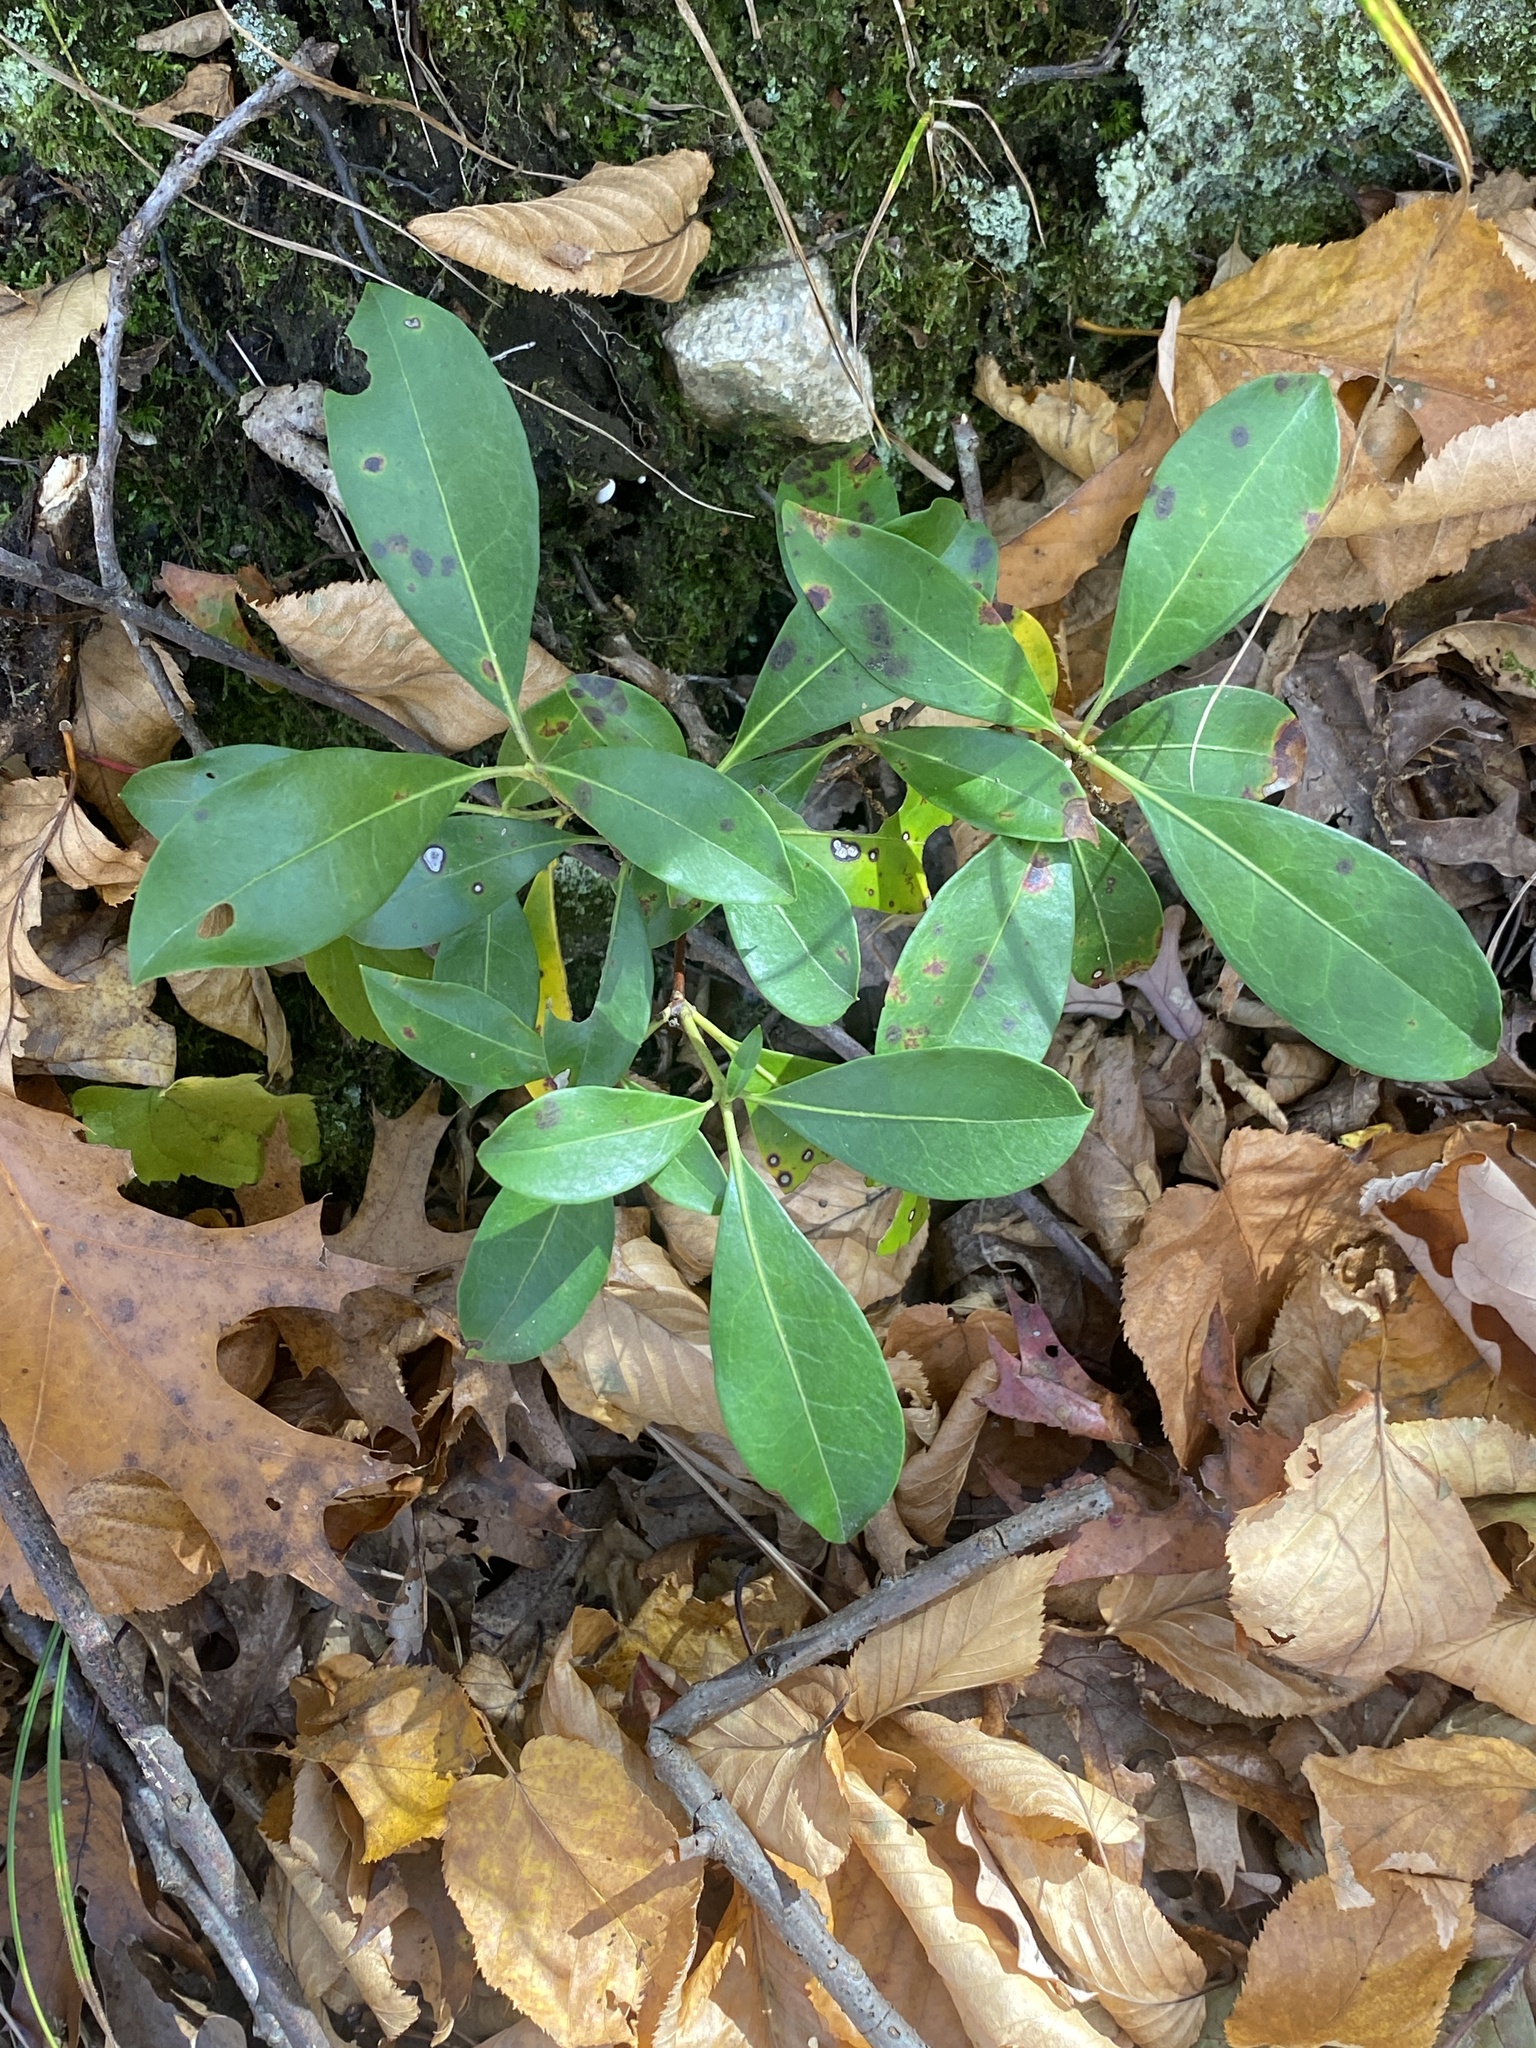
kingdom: Plantae
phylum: Tracheophyta
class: Magnoliopsida
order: Ericales
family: Ericaceae
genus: Kalmia
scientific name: Kalmia latifolia
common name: Mountain-laurel
